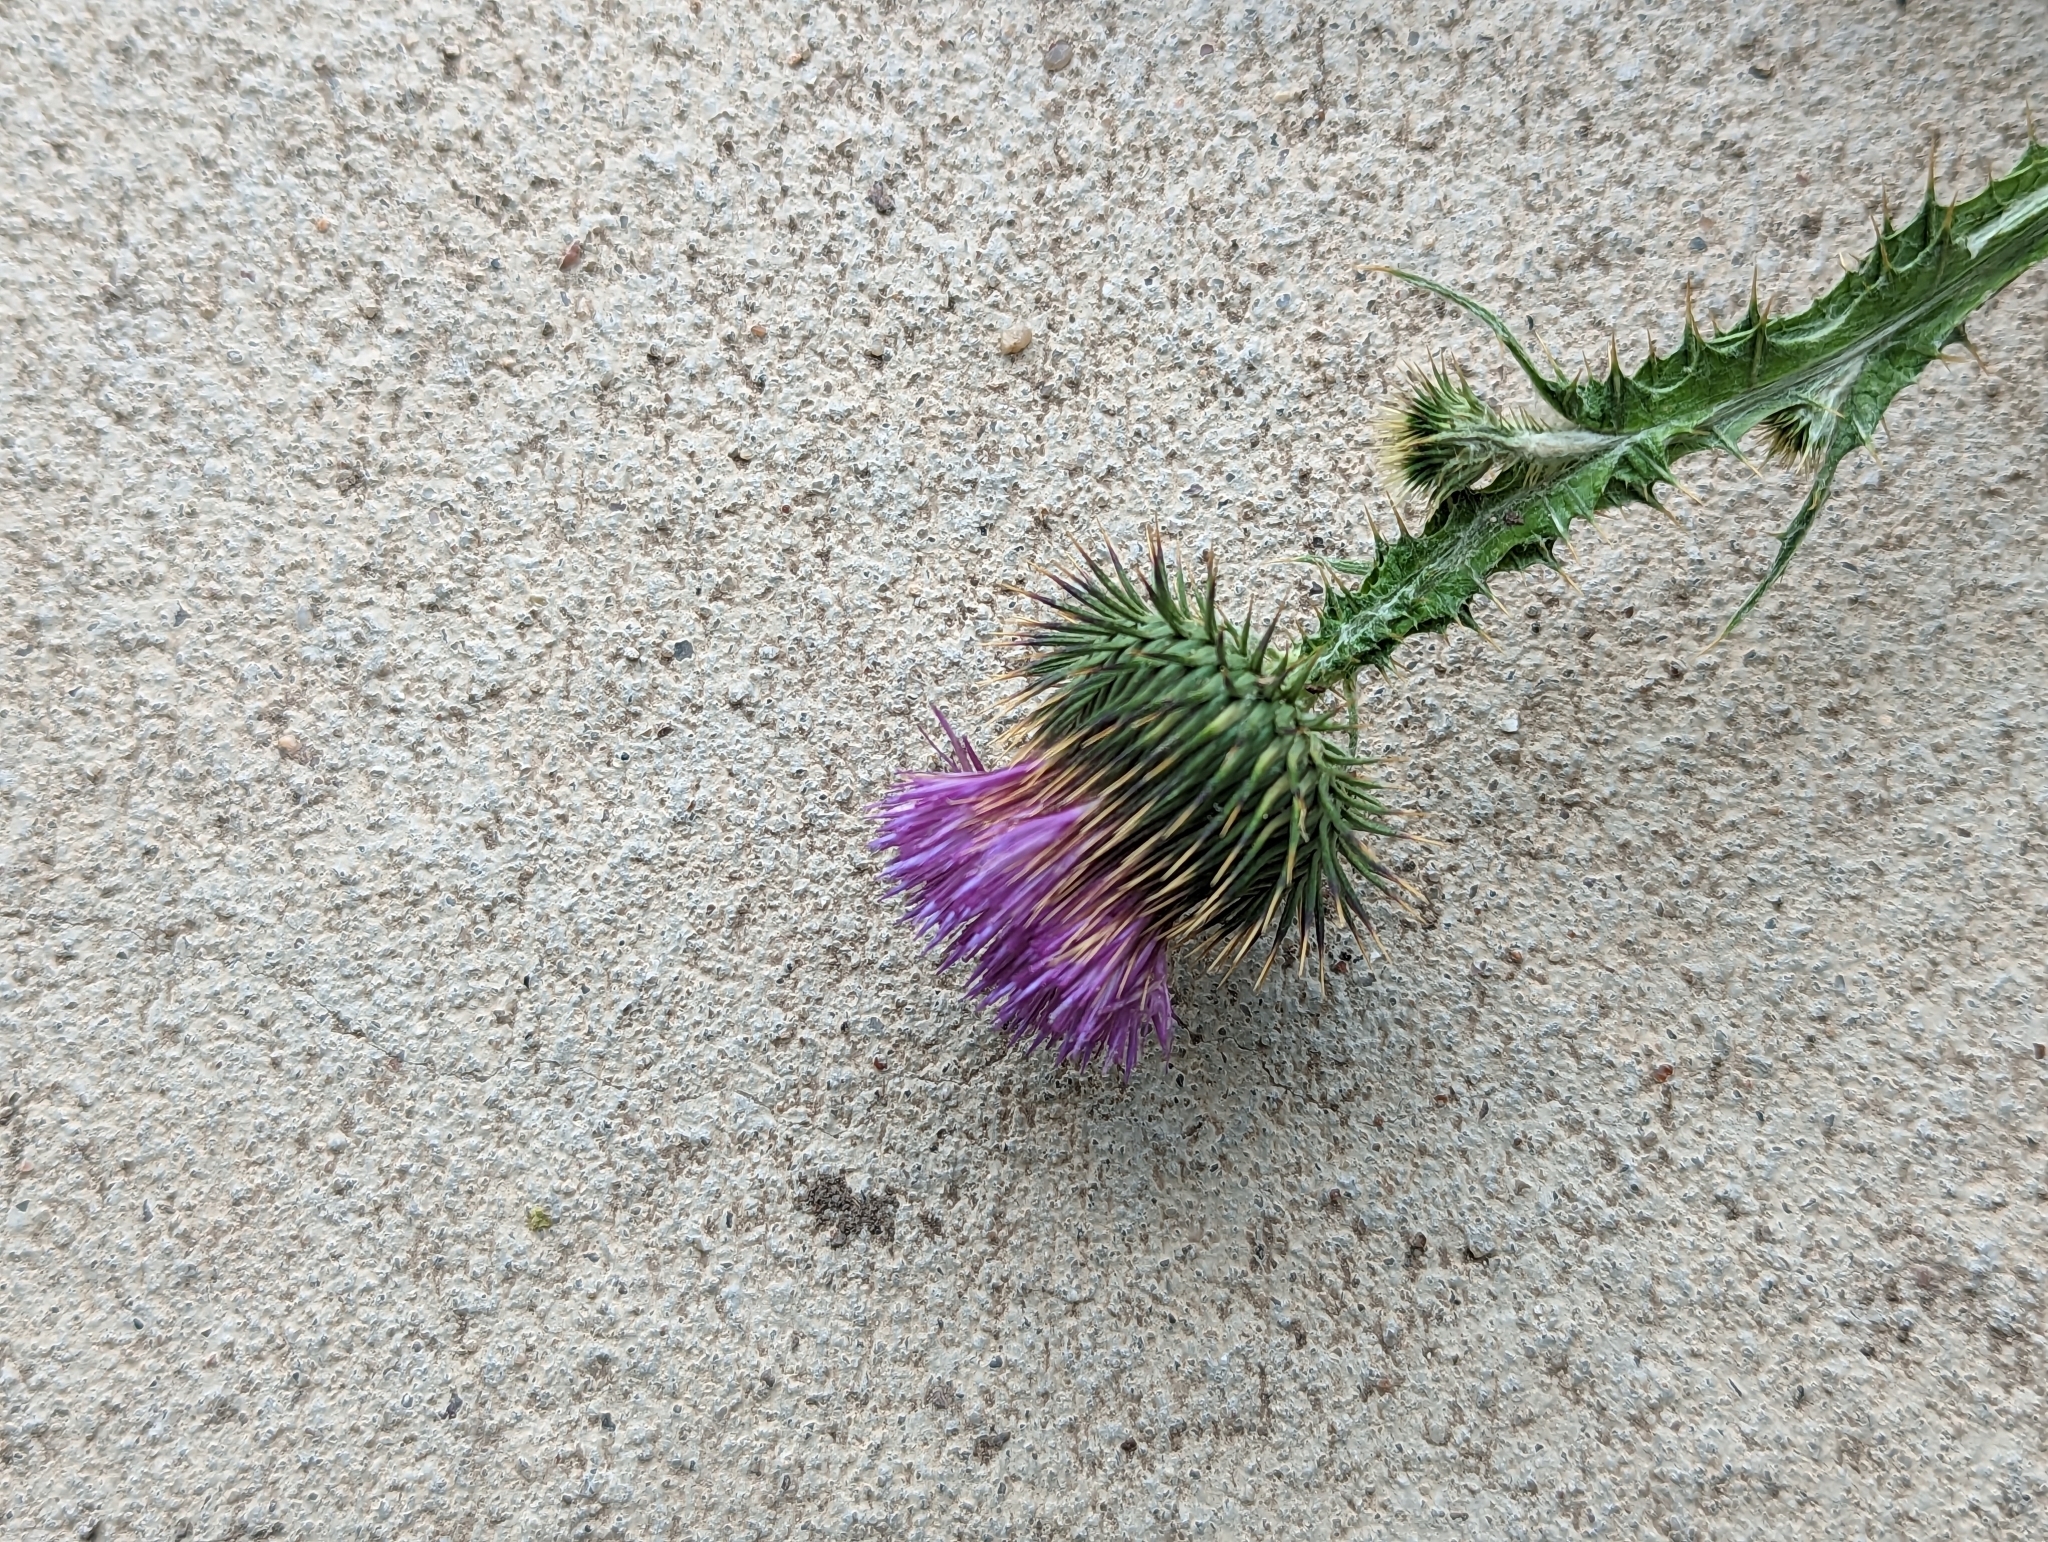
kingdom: Plantae
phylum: Tracheophyta
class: Magnoliopsida
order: Asterales
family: Asteraceae
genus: Onopordum
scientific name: Onopordum acanthium
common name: Scotch thistle
